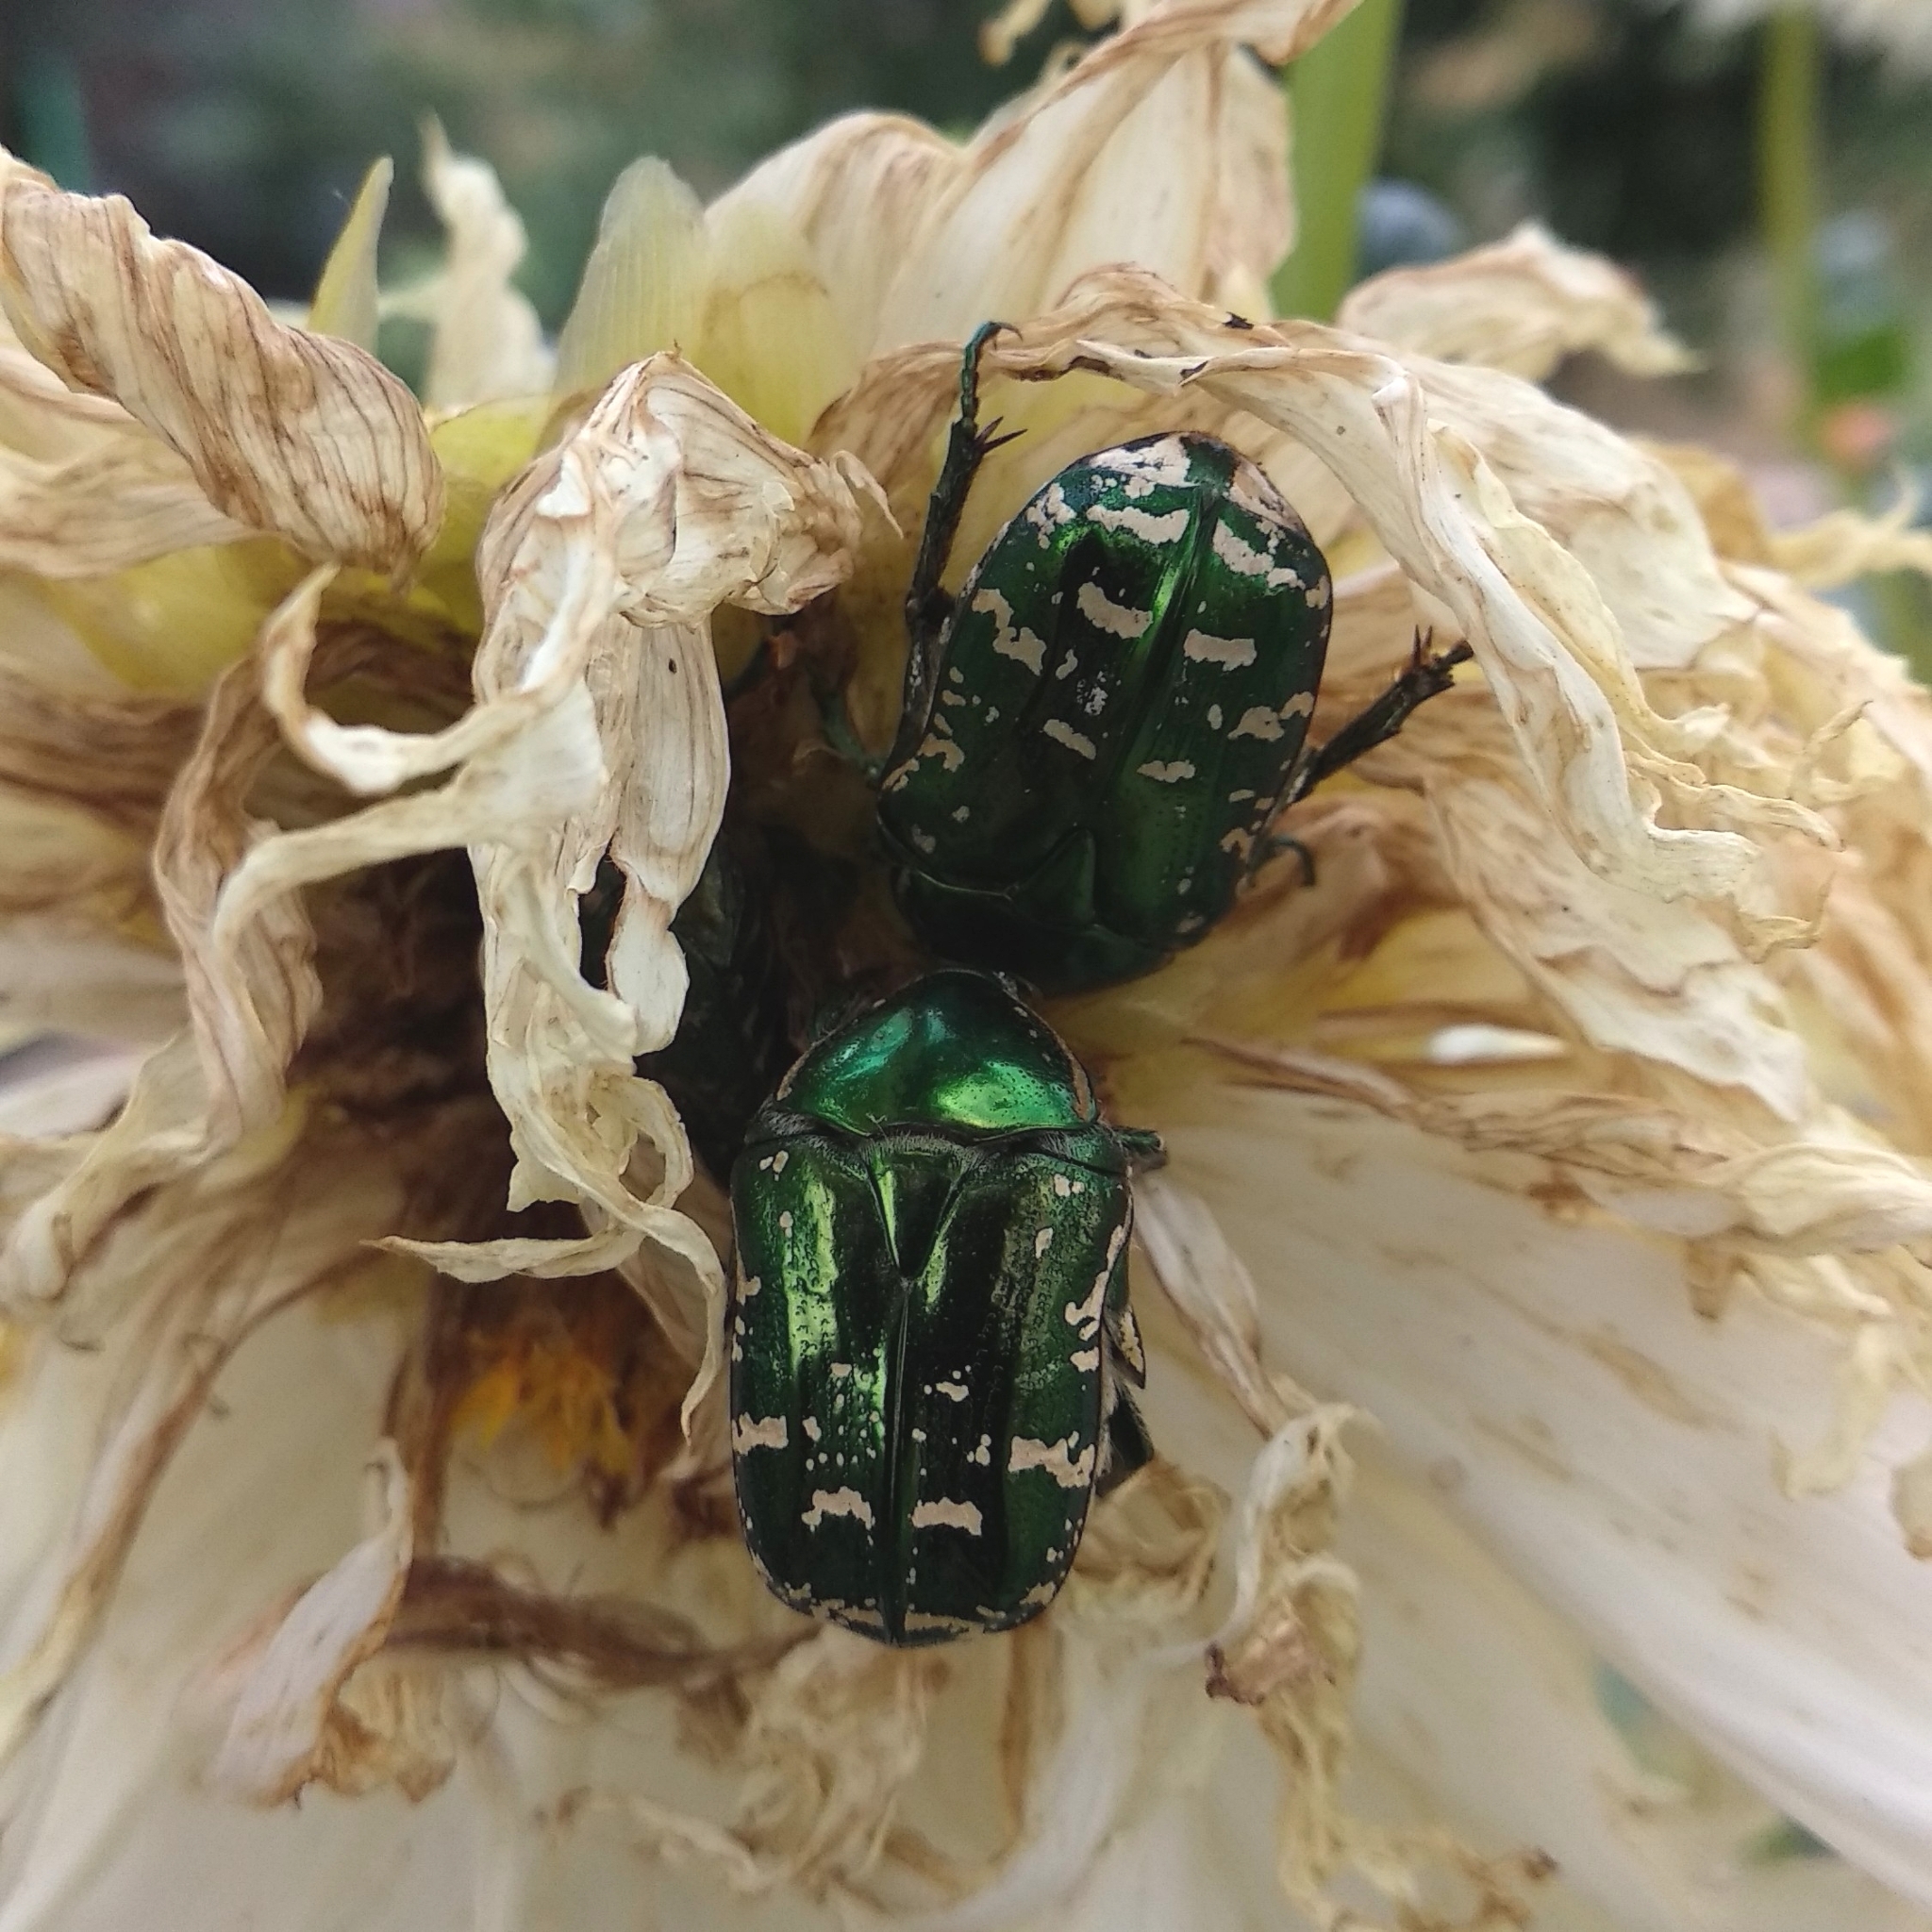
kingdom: Animalia
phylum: Arthropoda
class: Insecta
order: Coleoptera
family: Scarabaeidae
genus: Protaetia
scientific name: Protaetia marginicollis
